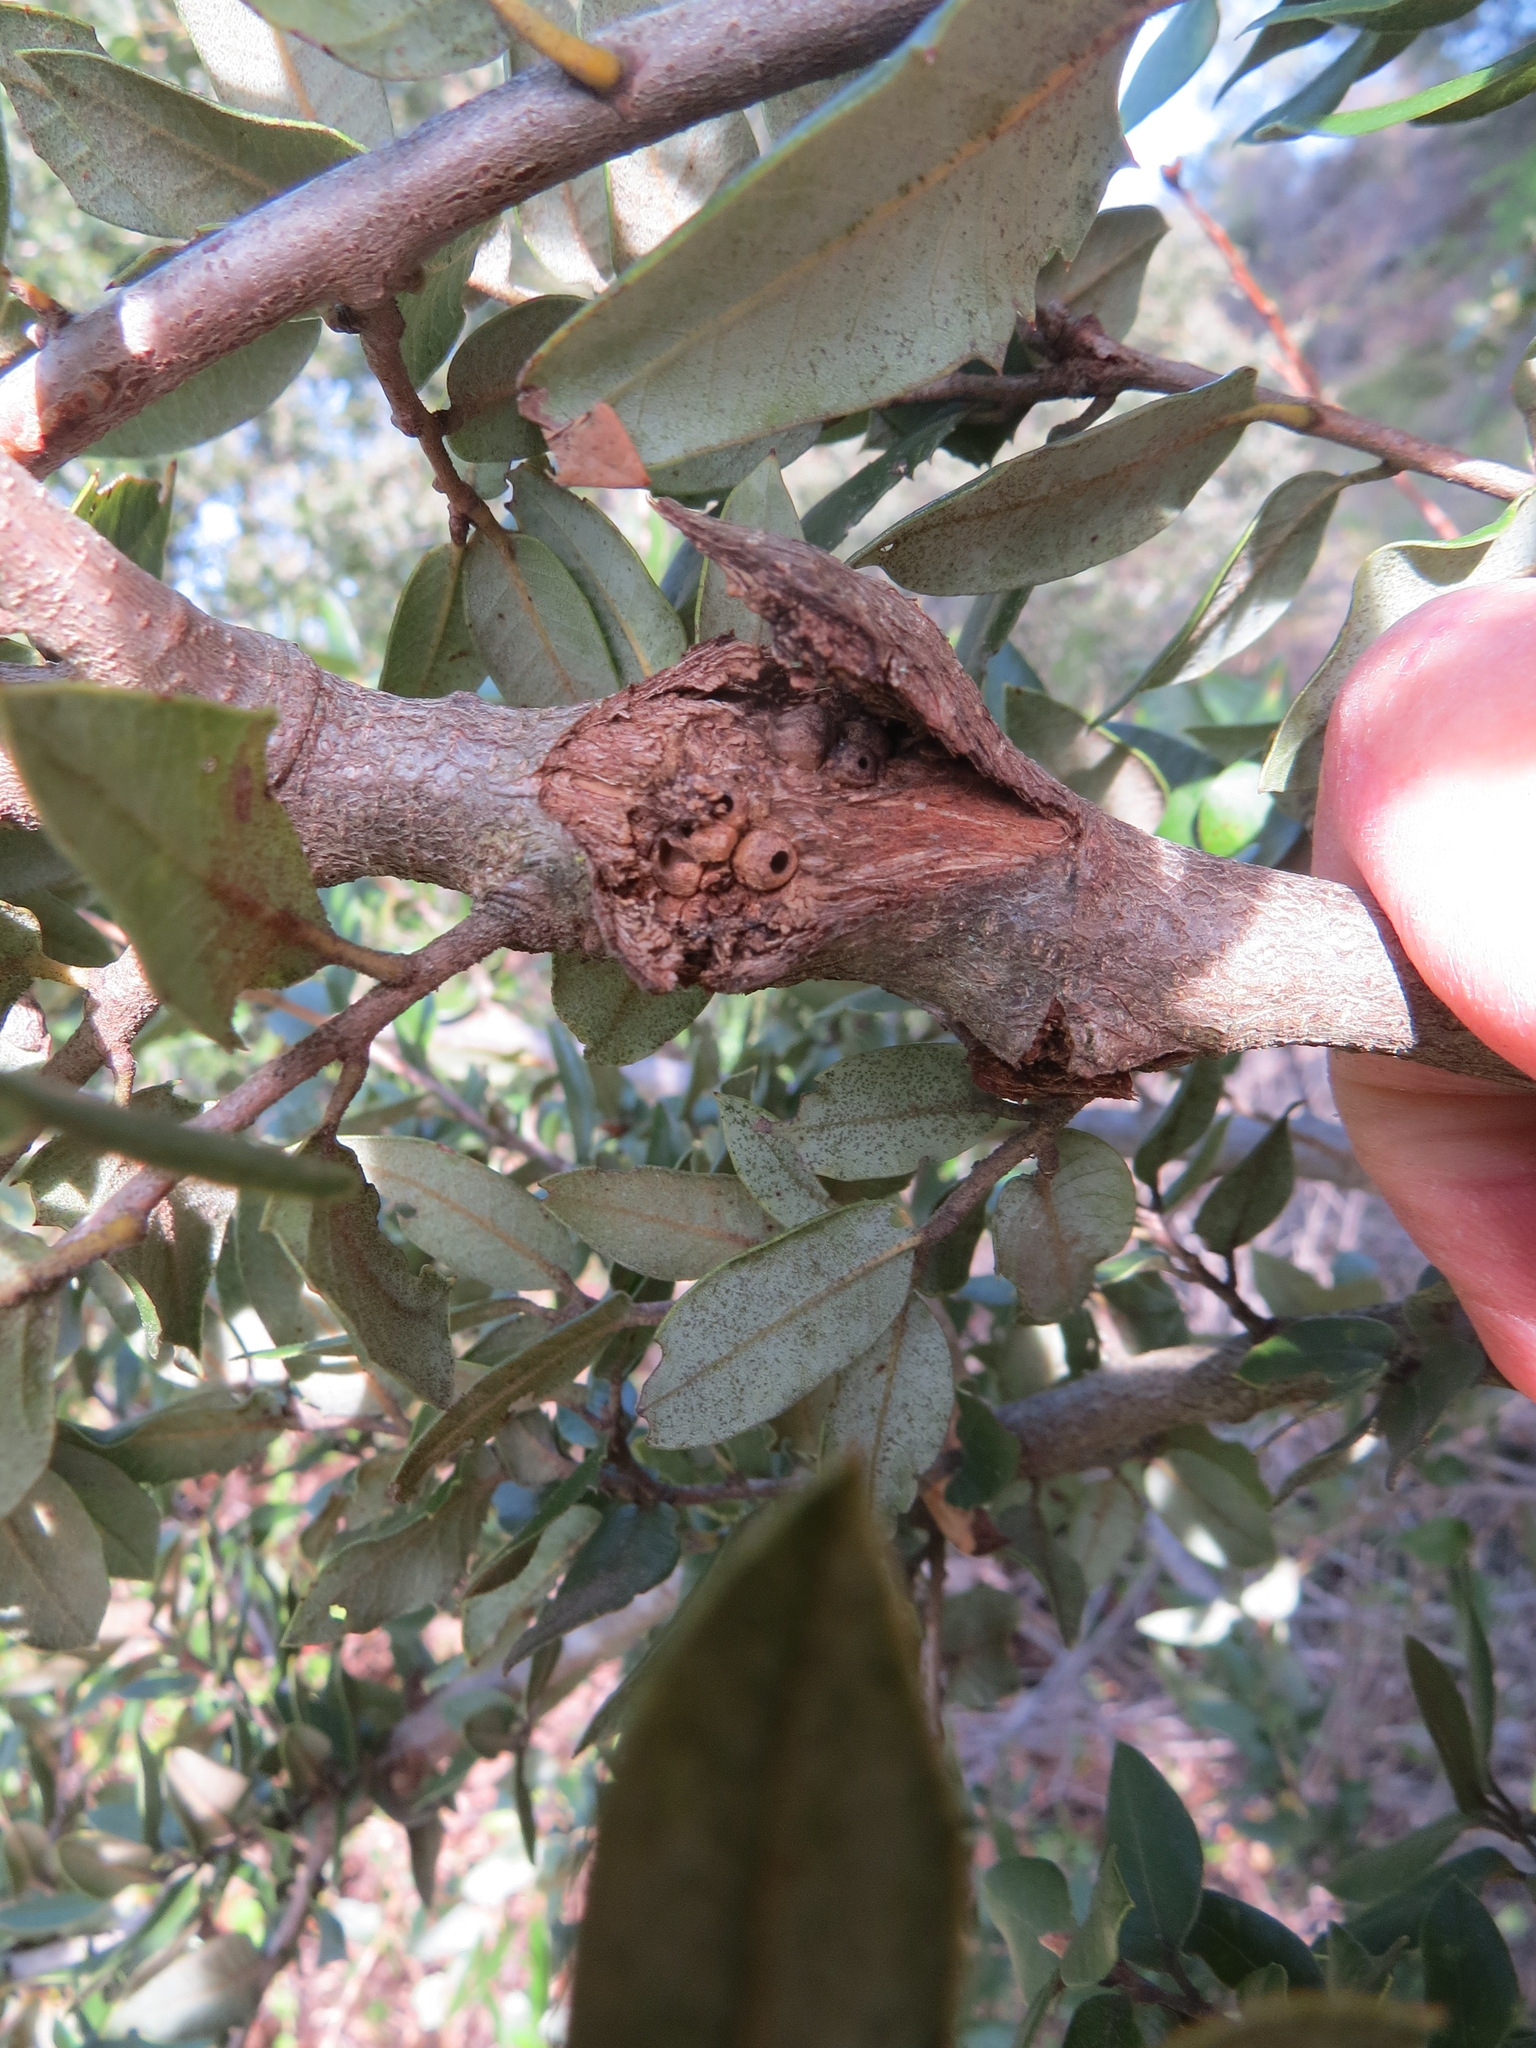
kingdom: Animalia
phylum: Arthropoda
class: Insecta
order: Hymenoptera
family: Cynipidae
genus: Dryocosmus
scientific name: Dryocosmus
